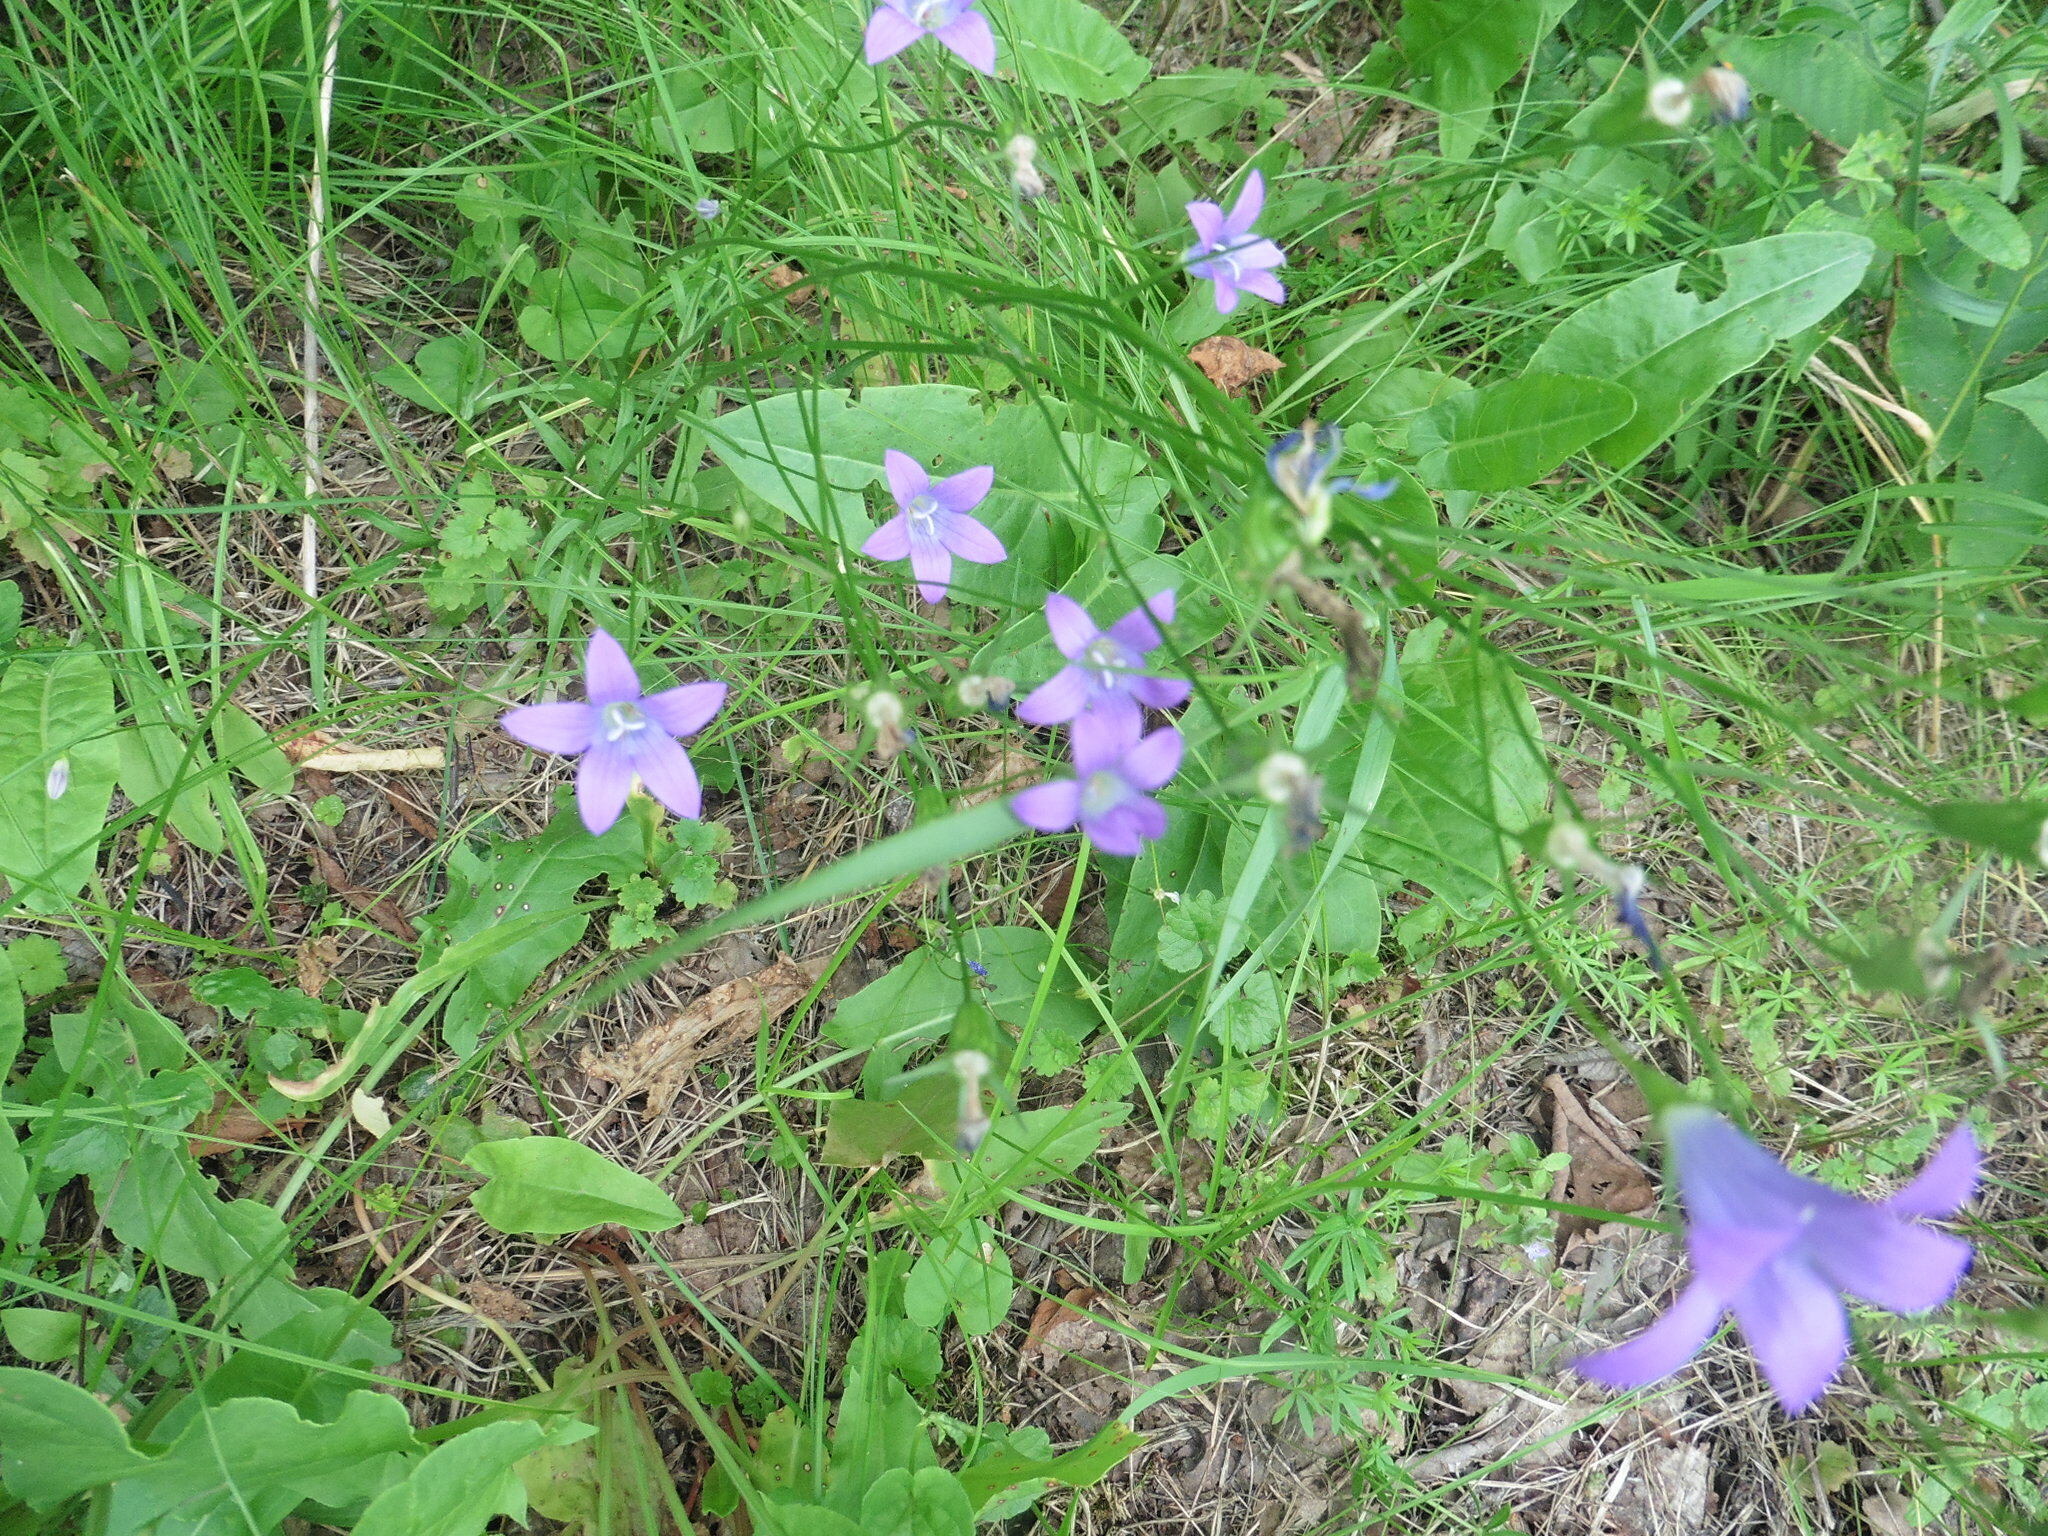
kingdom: Plantae
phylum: Tracheophyta
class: Magnoliopsida
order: Asterales
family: Campanulaceae
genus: Campanula
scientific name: Campanula patula
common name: Spreading bellflower
